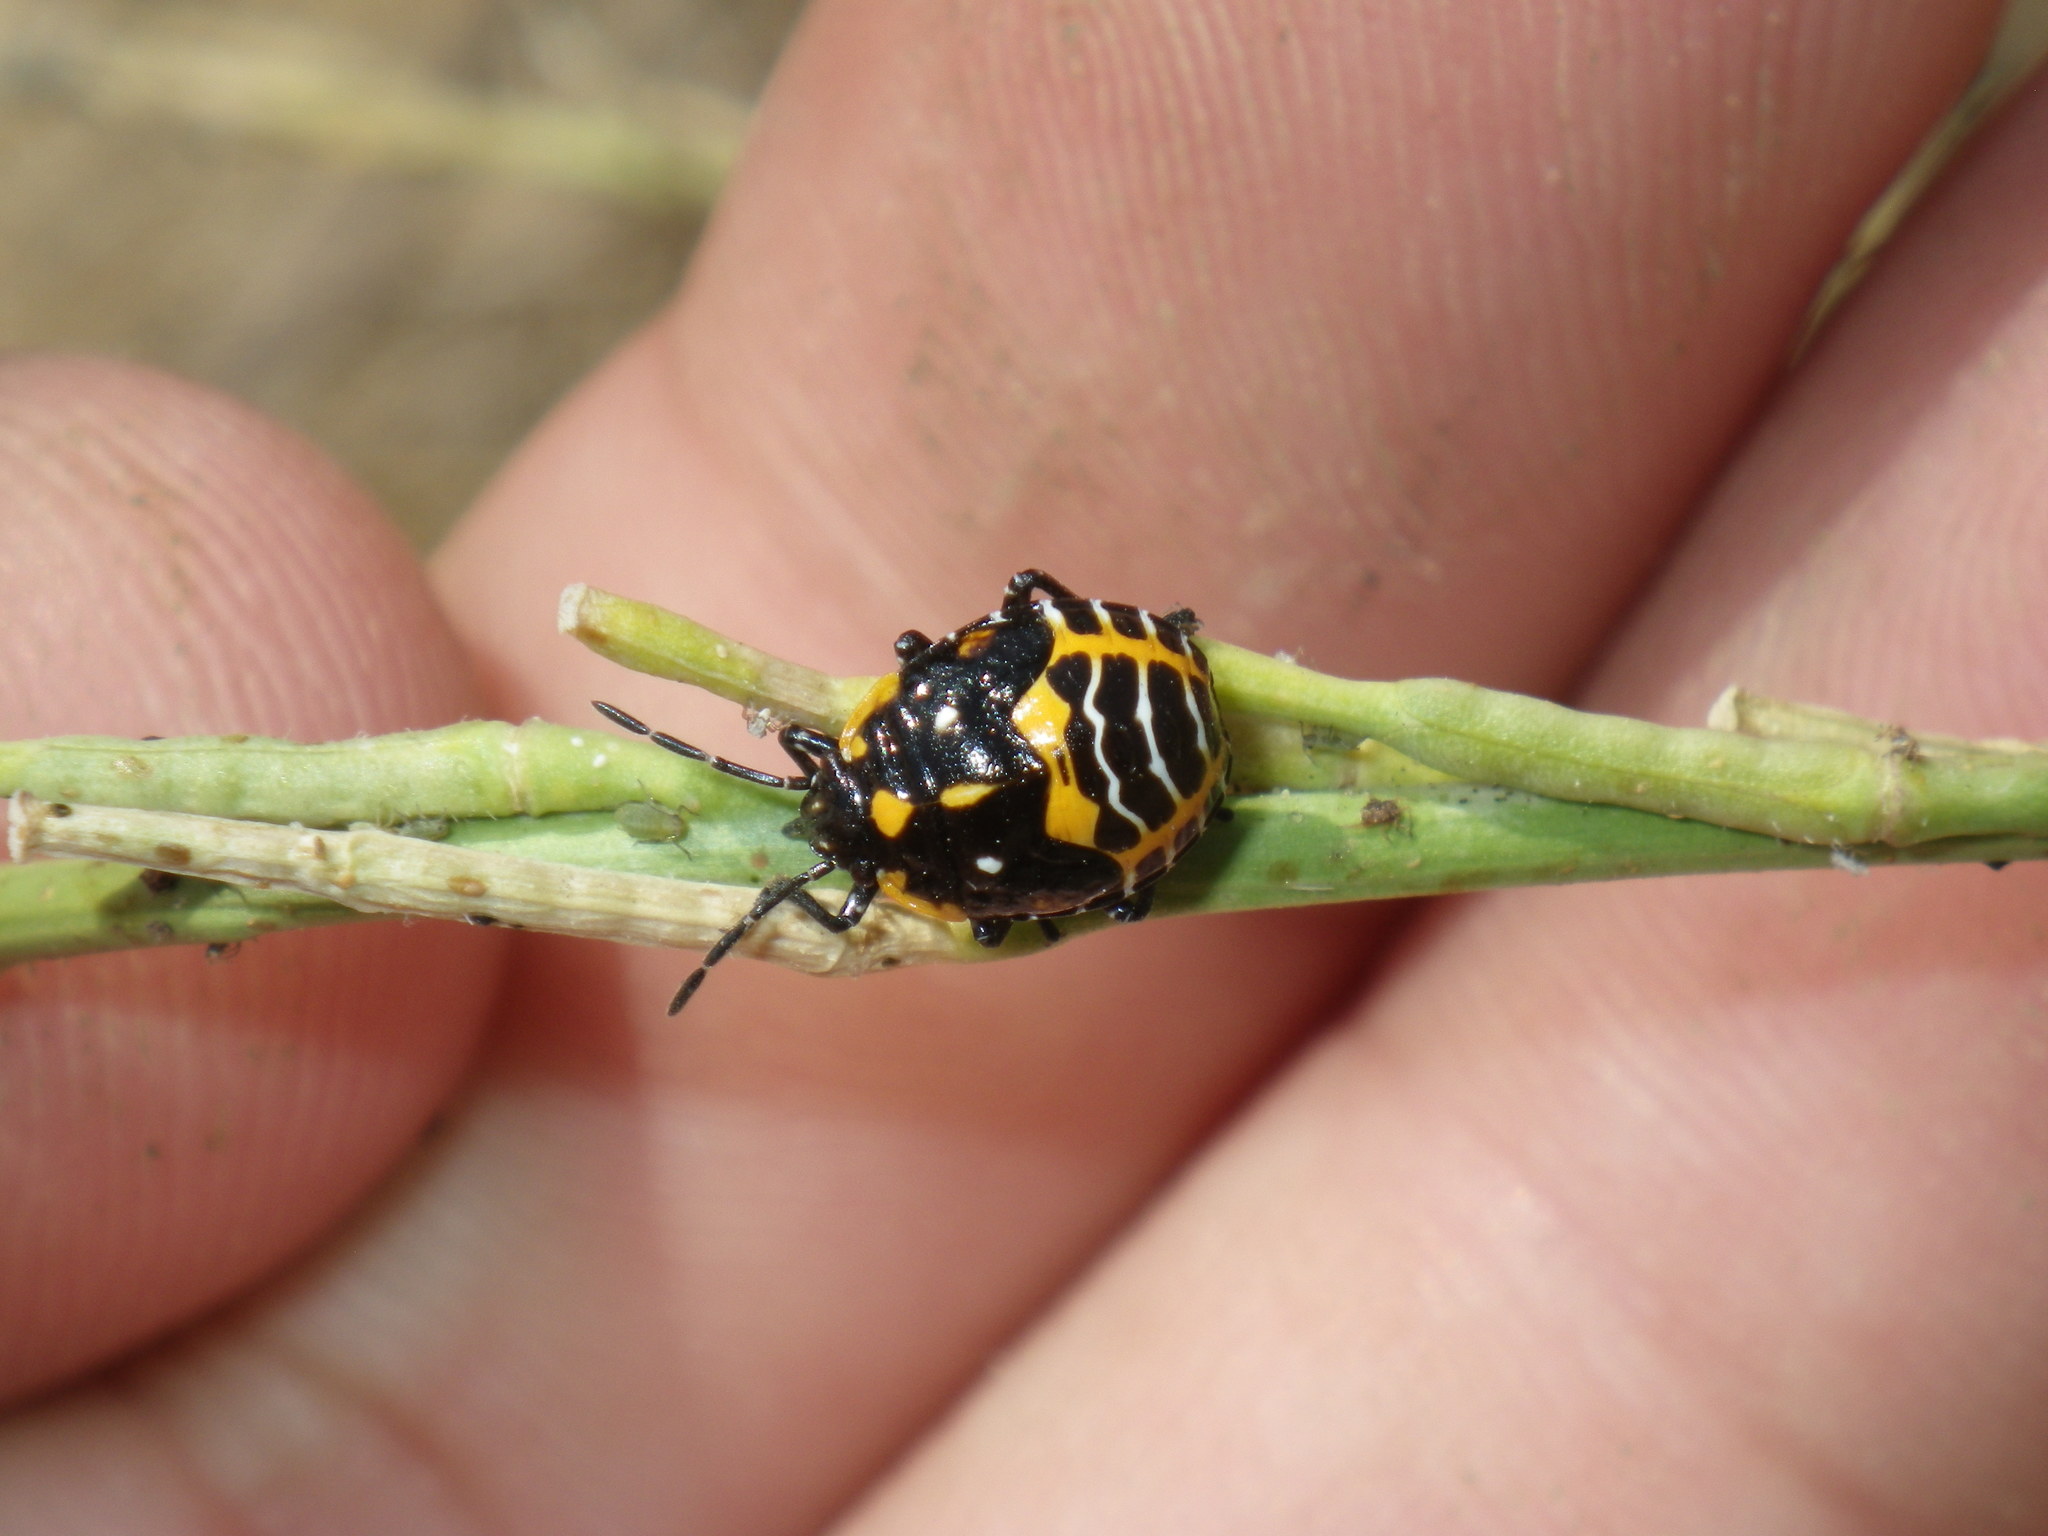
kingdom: Animalia
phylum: Arthropoda
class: Insecta
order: Hemiptera
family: Pentatomidae
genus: Murgantia
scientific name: Murgantia histrionica
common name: Harlequin bug
